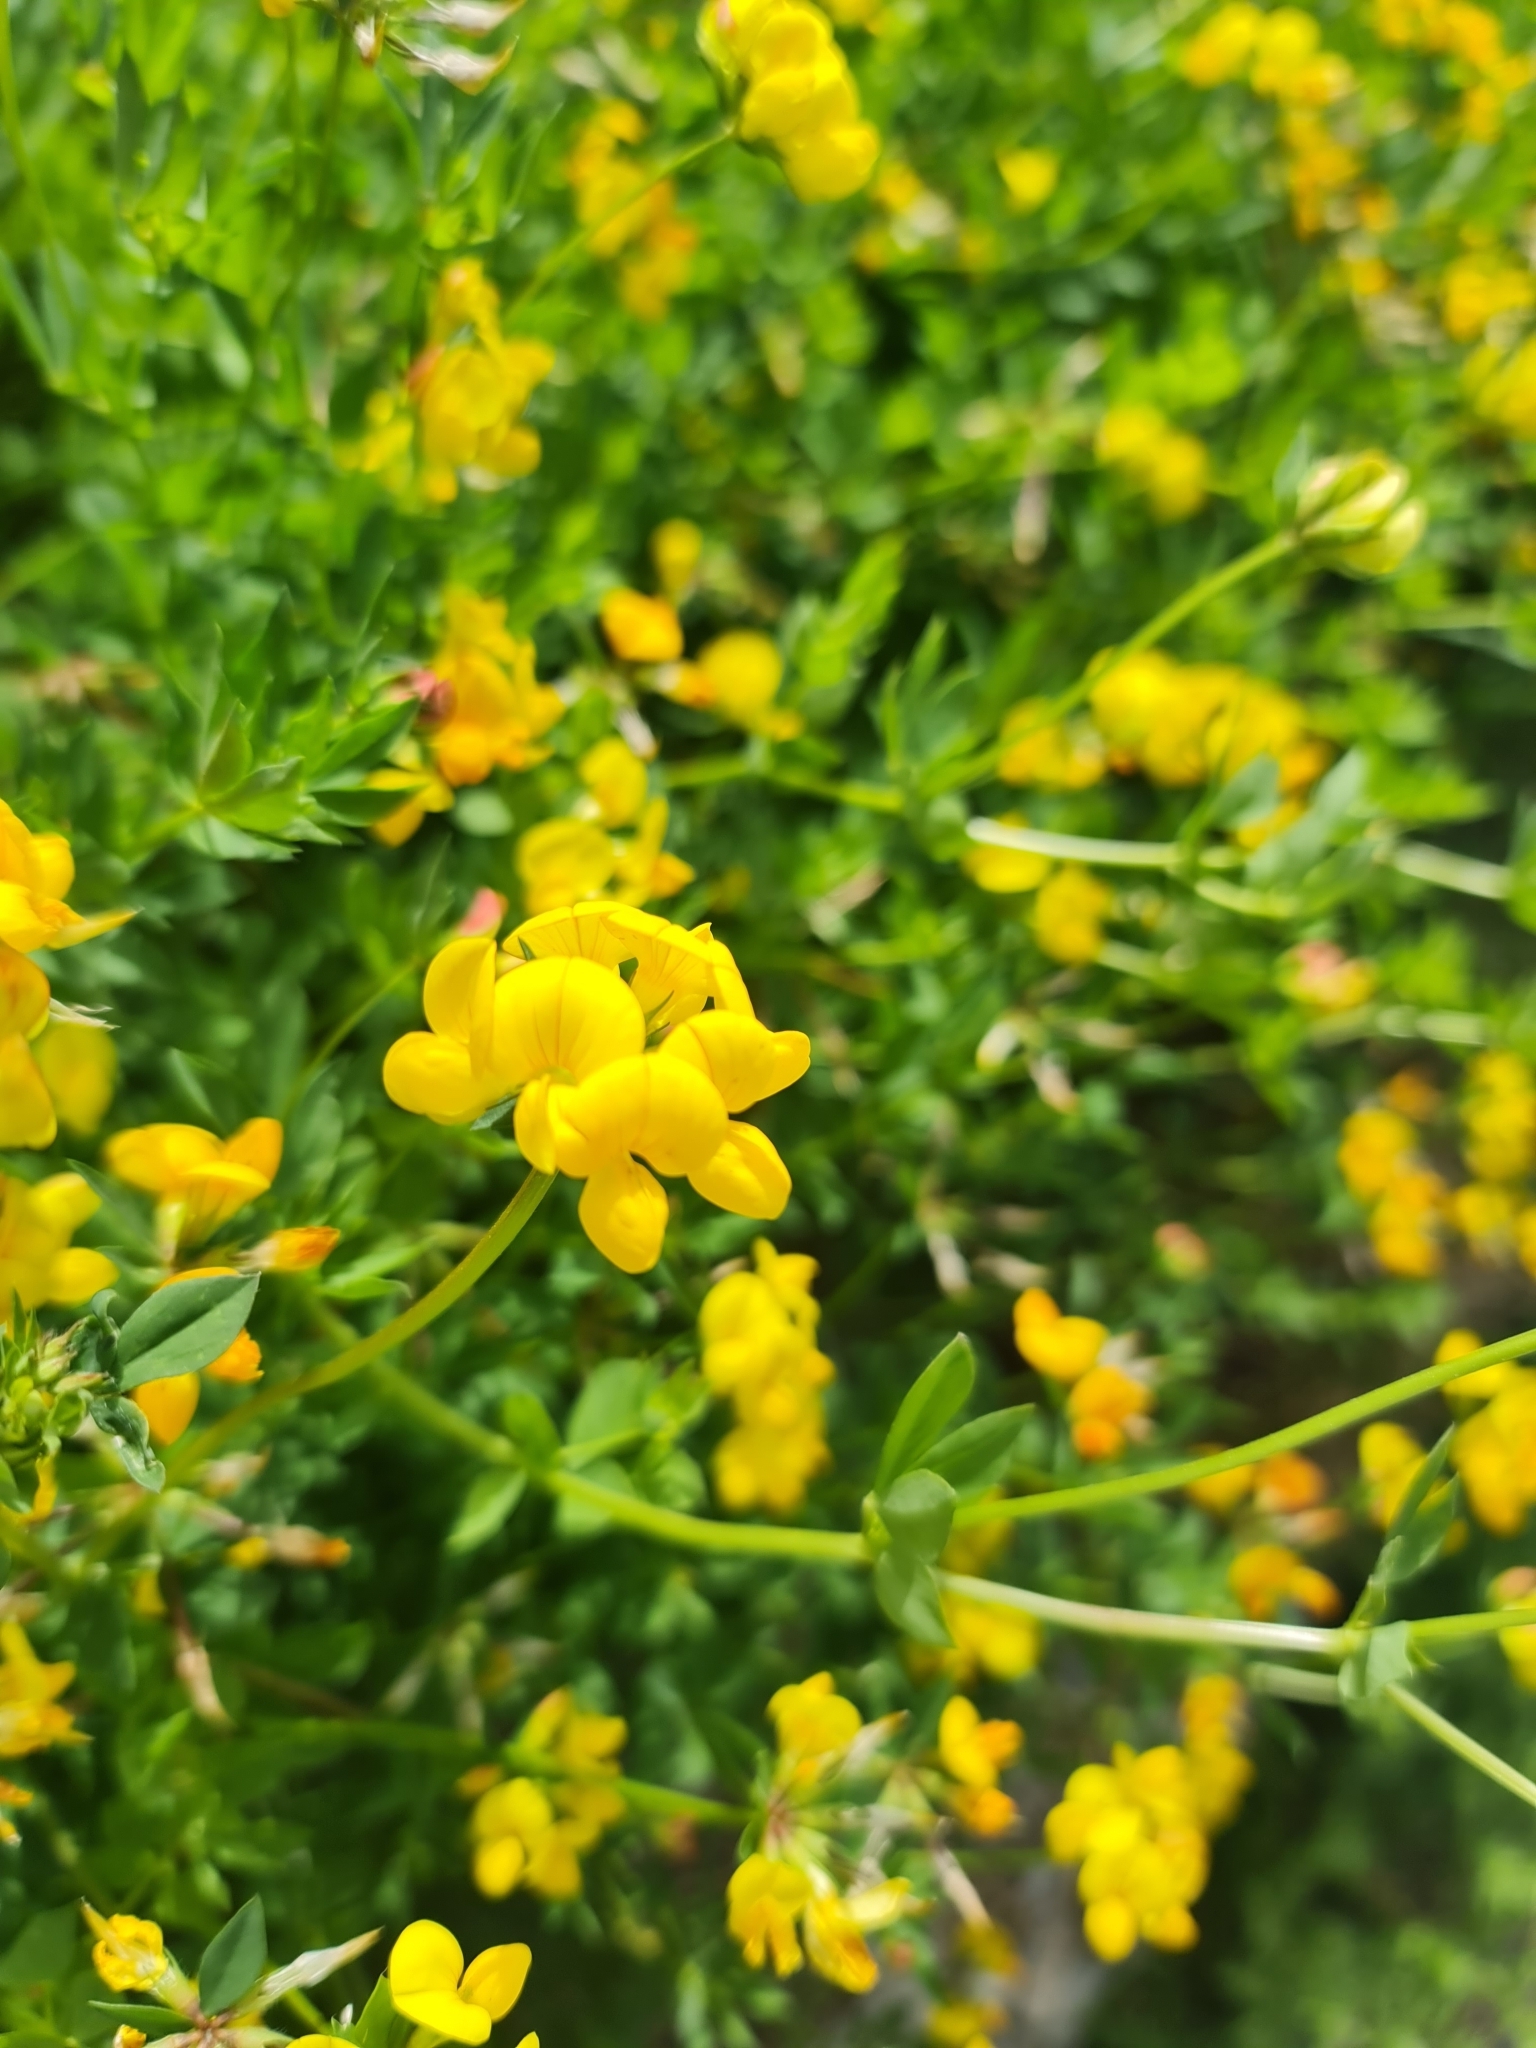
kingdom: Plantae
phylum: Tracheophyta
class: Magnoliopsida
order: Fabales
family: Fabaceae
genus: Lotus
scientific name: Lotus corniculatus
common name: Common bird's-foot-trefoil
